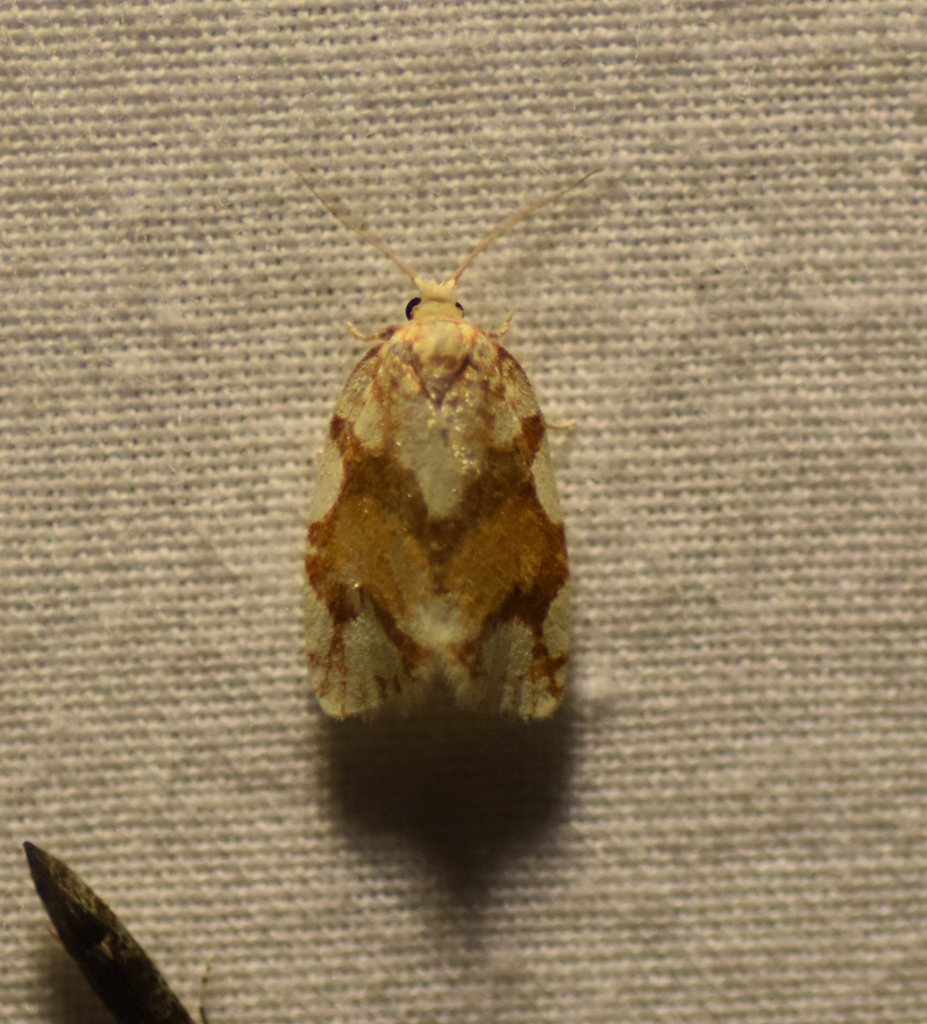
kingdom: Animalia
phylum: Arthropoda
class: Insecta
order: Lepidoptera
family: Tortricidae
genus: Argyrotaenia
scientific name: Argyrotaenia alisellana
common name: White-spotted leafroller moth
